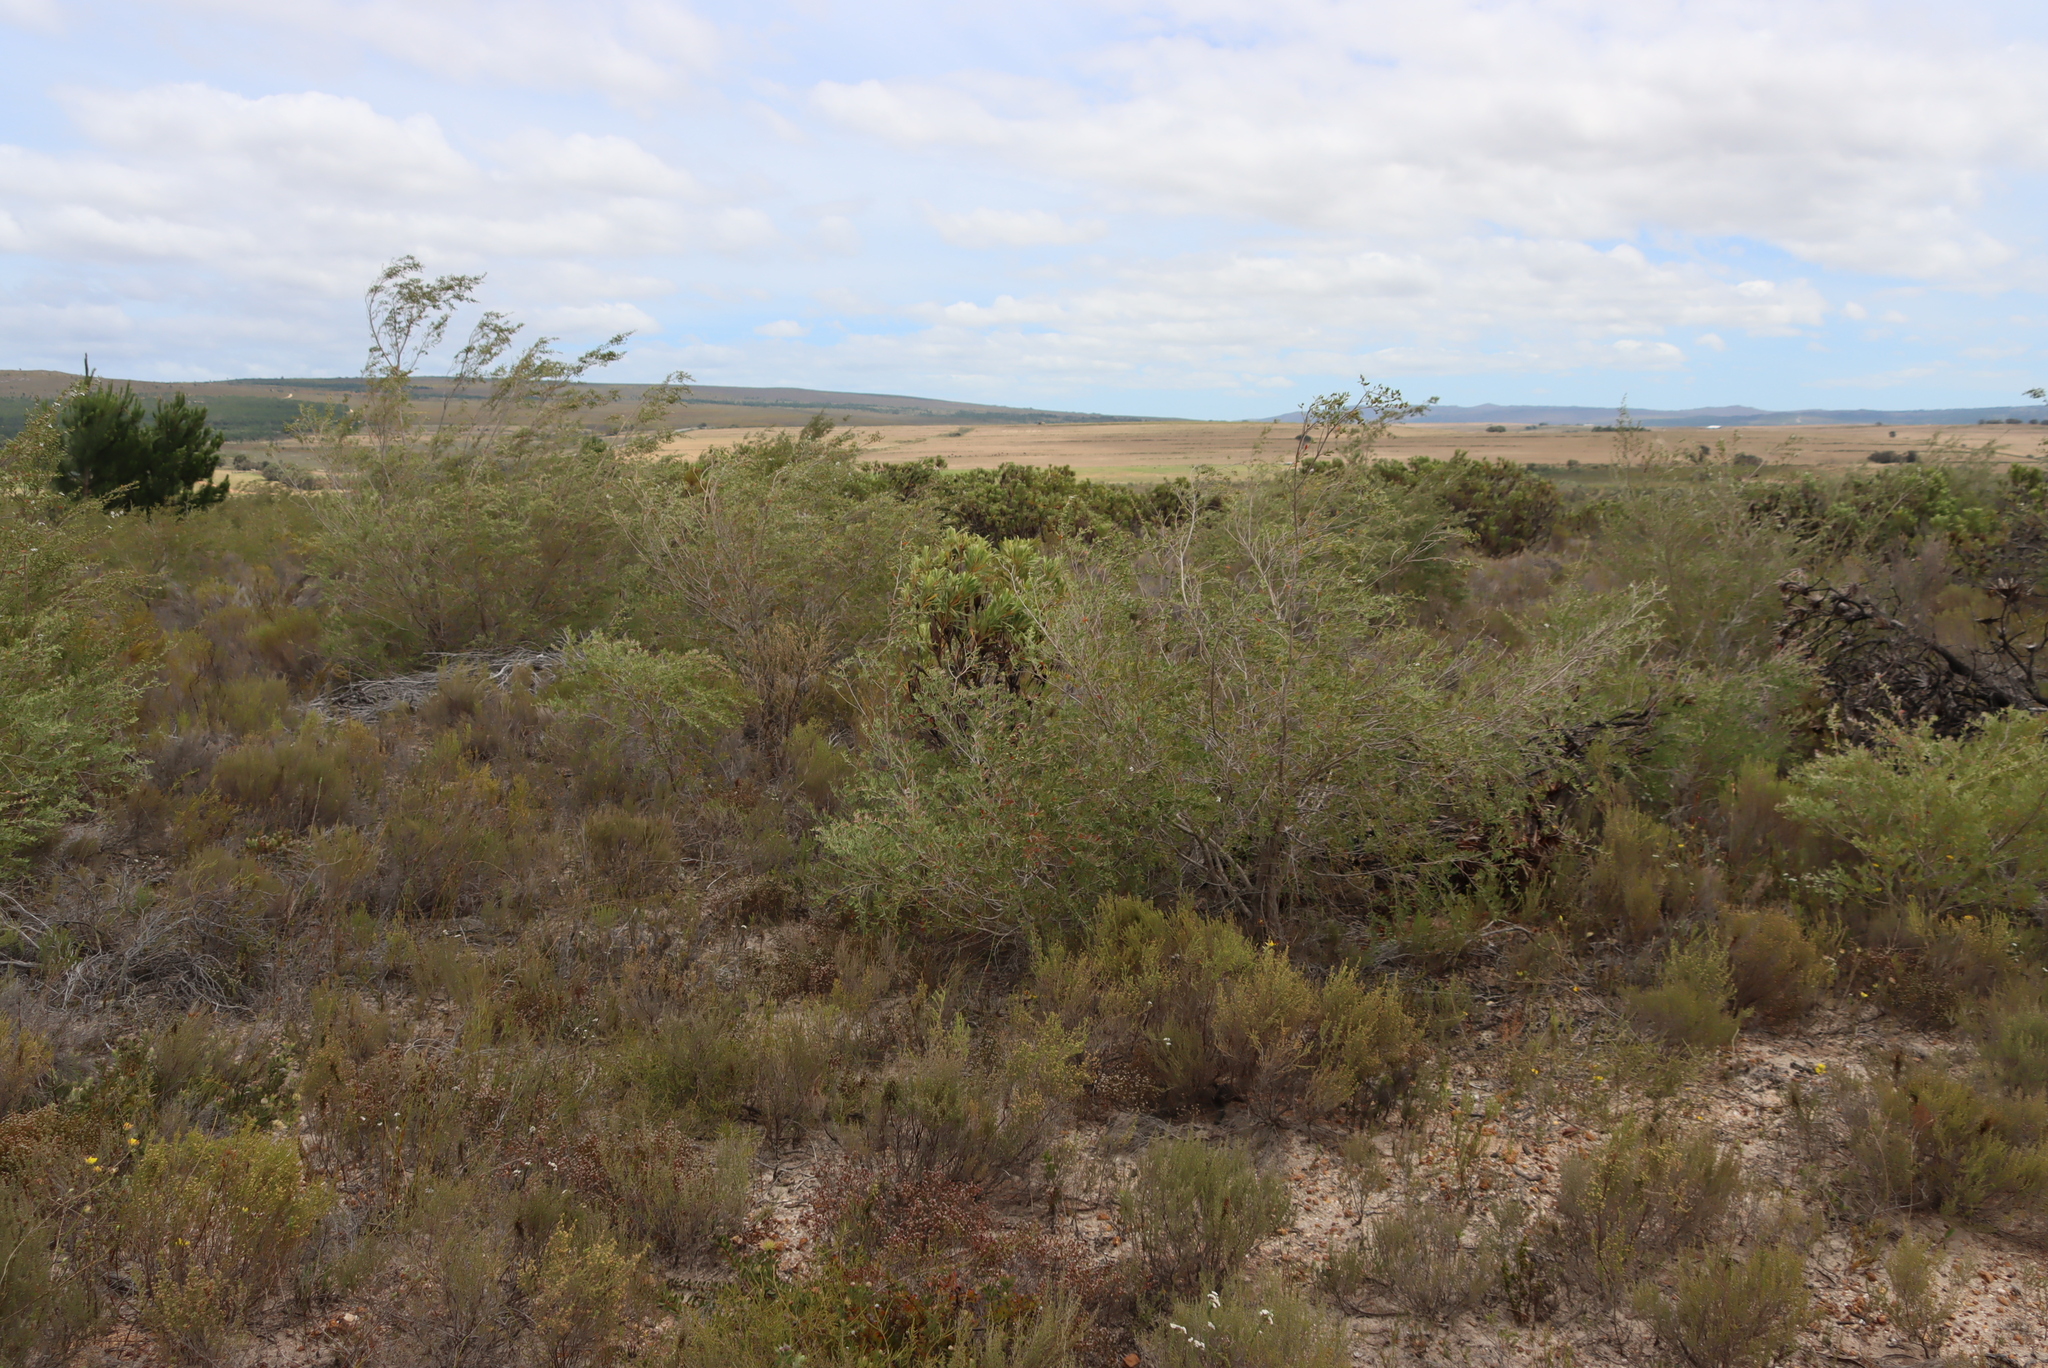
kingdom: Plantae
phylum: Tracheophyta
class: Magnoliopsida
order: Myrtales
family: Myrtaceae
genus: Leptospermum
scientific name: Leptospermum laevigatum
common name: Australian teatree
